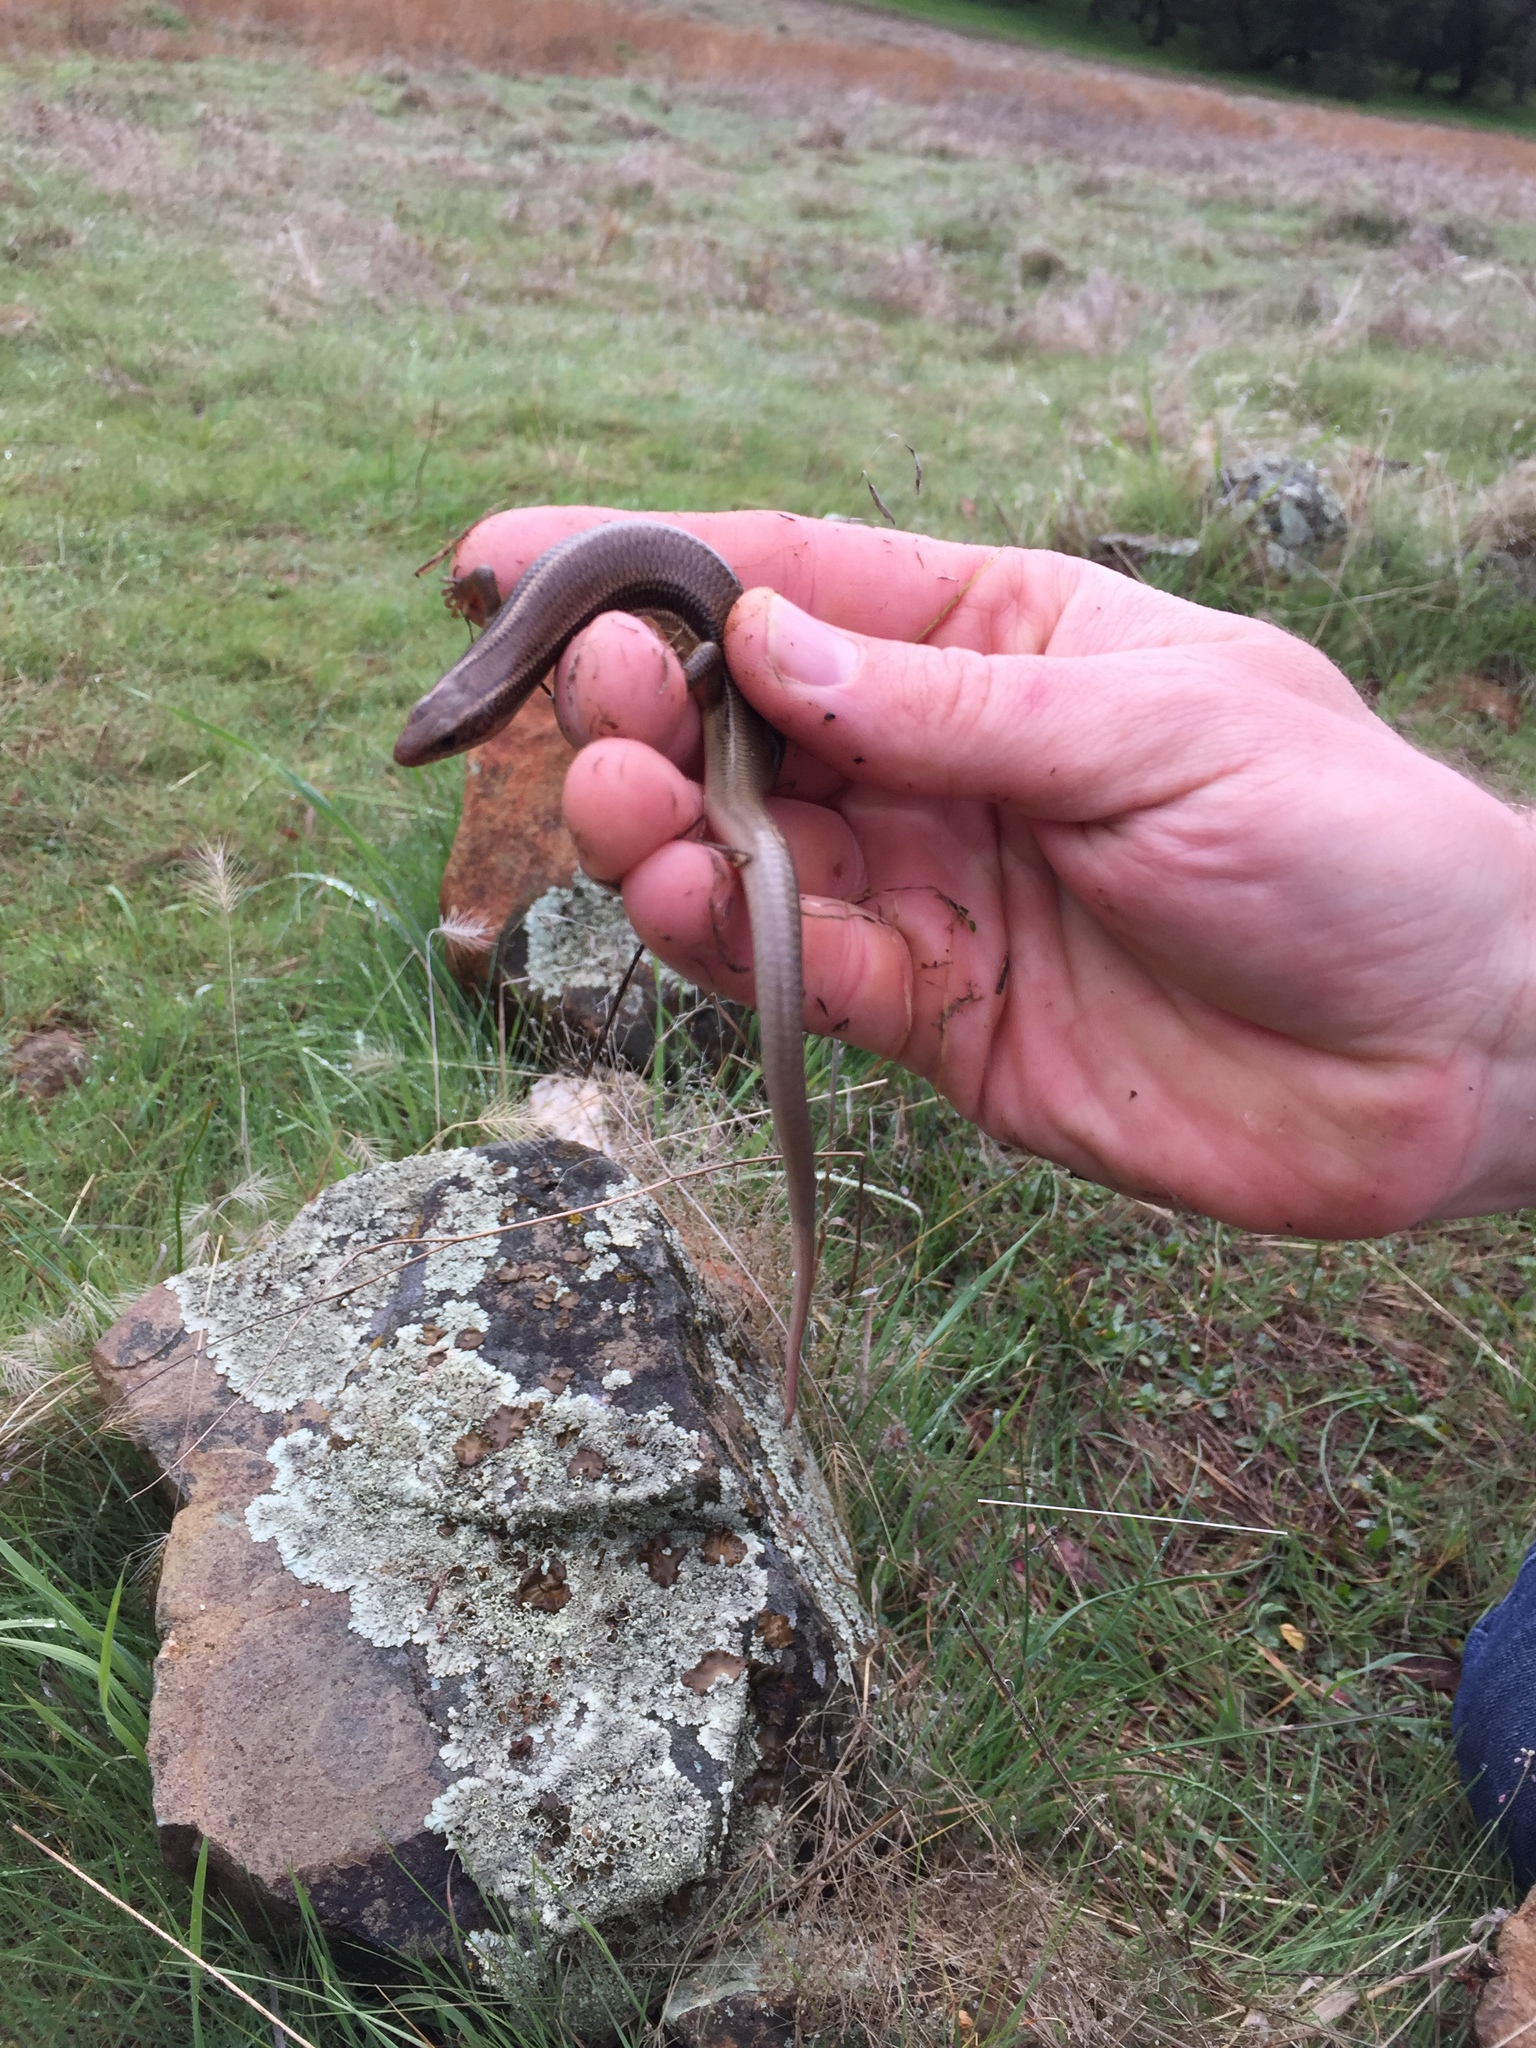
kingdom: Animalia
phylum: Chordata
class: Squamata
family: Scincidae
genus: Plestiodon
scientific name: Plestiodon gilberti
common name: Gilbert's skink
